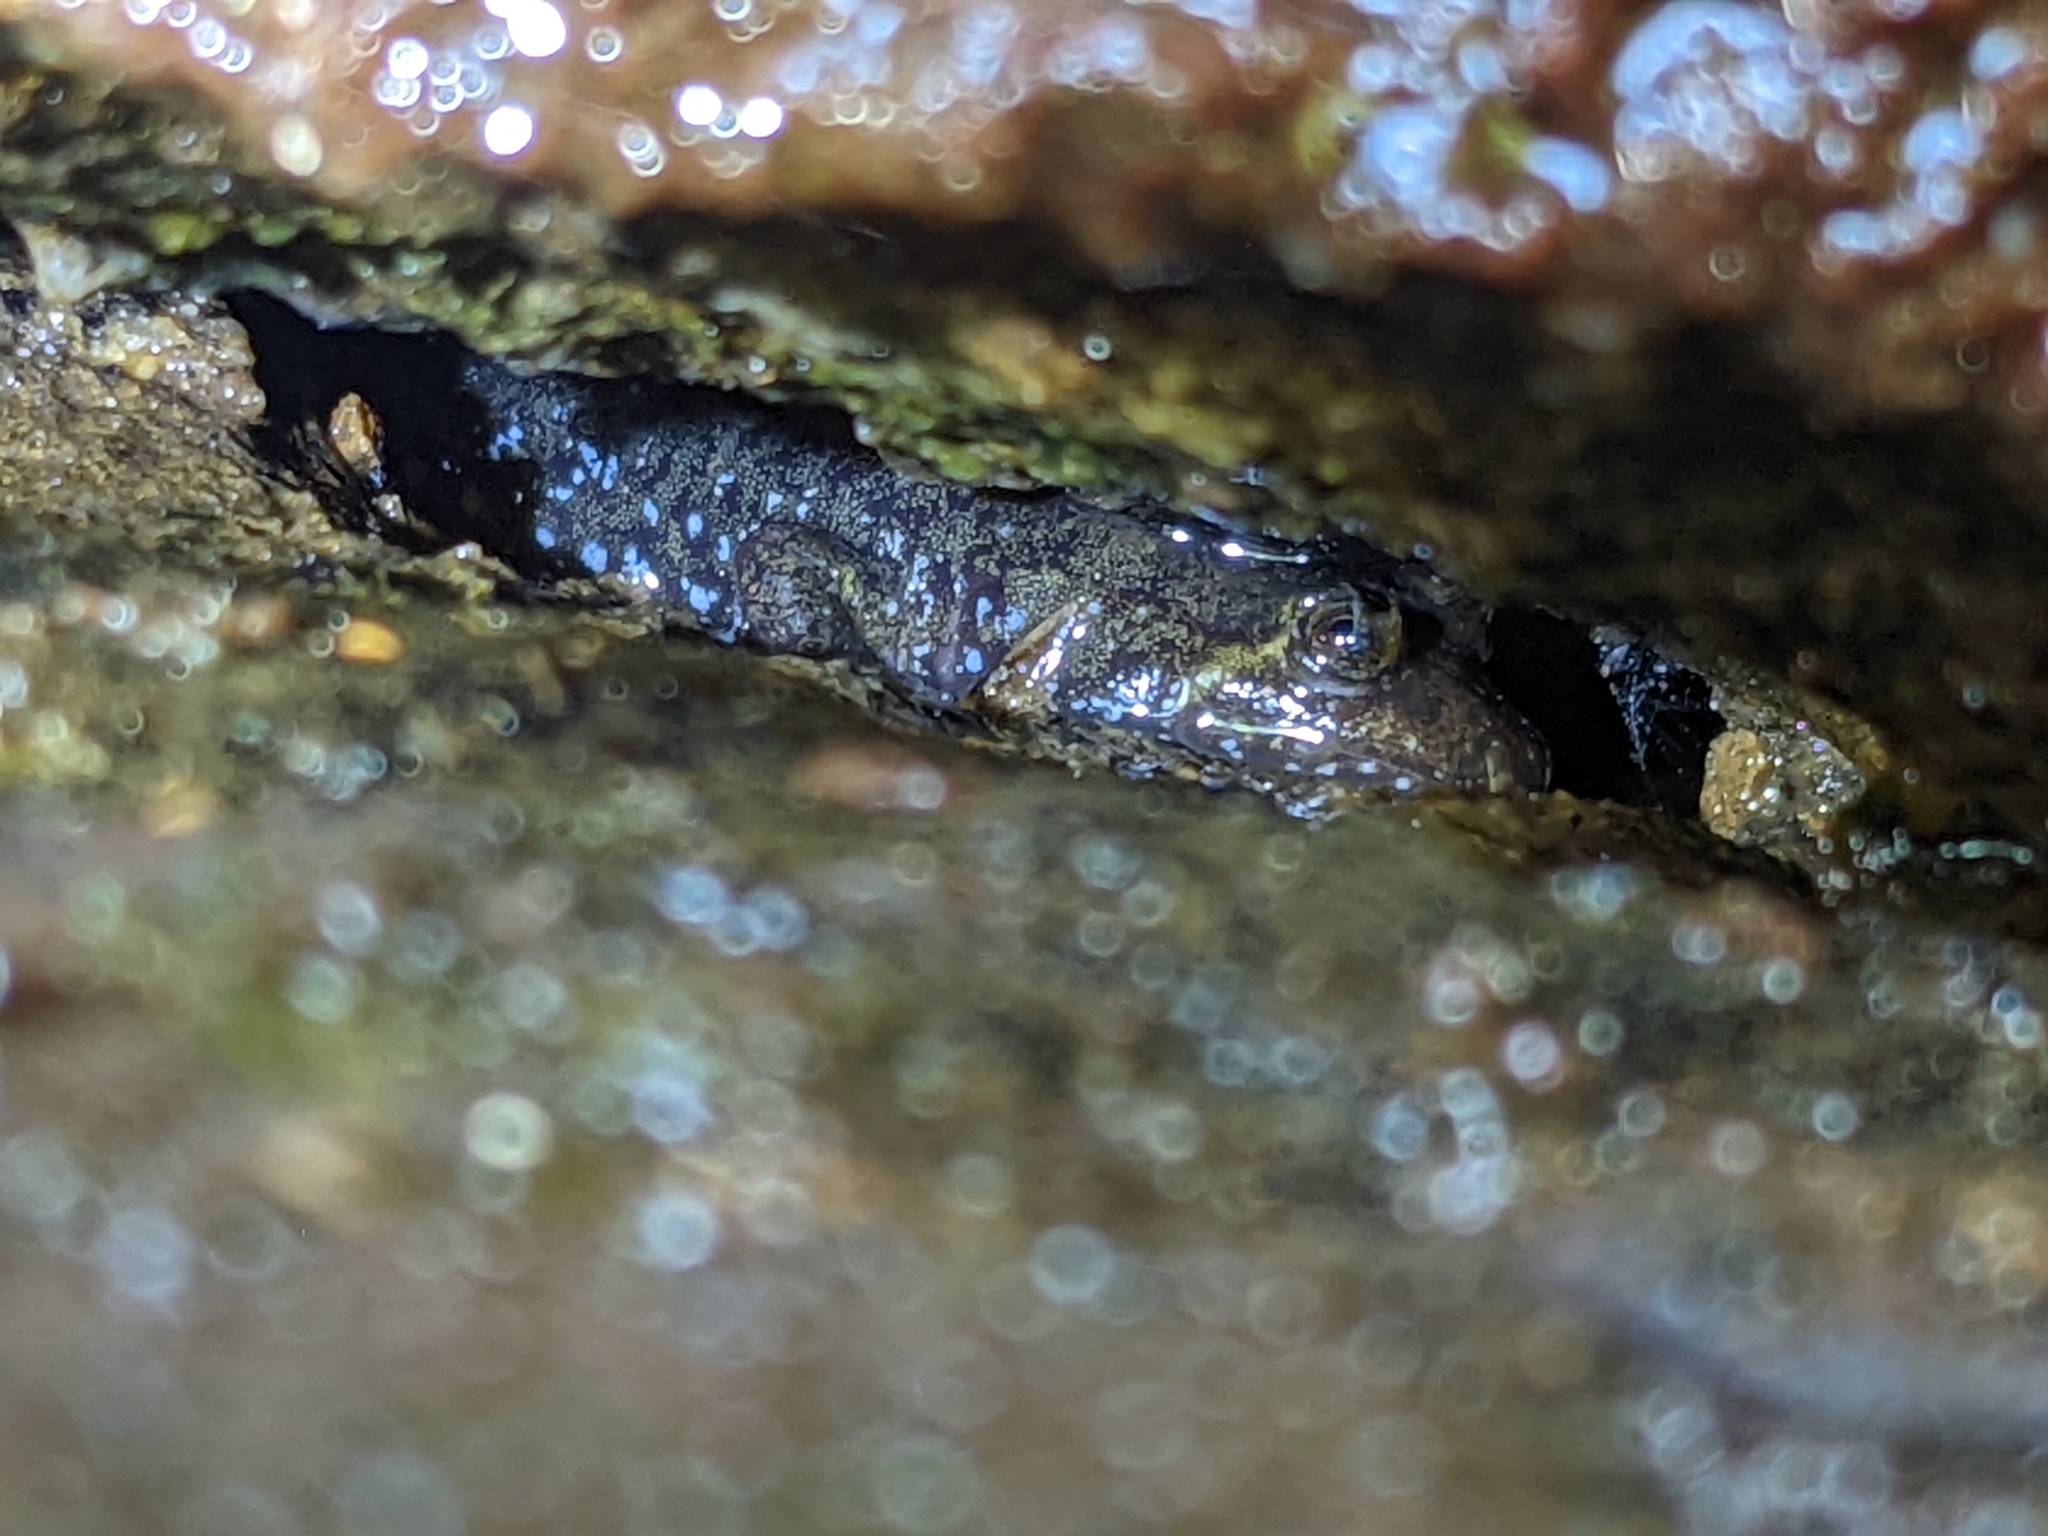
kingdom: Animalia
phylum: Chordata
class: Amphibia
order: Caudata
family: Plethodontidae
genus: Desmognathus
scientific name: Desmognathus monticola
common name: Seal salamander
